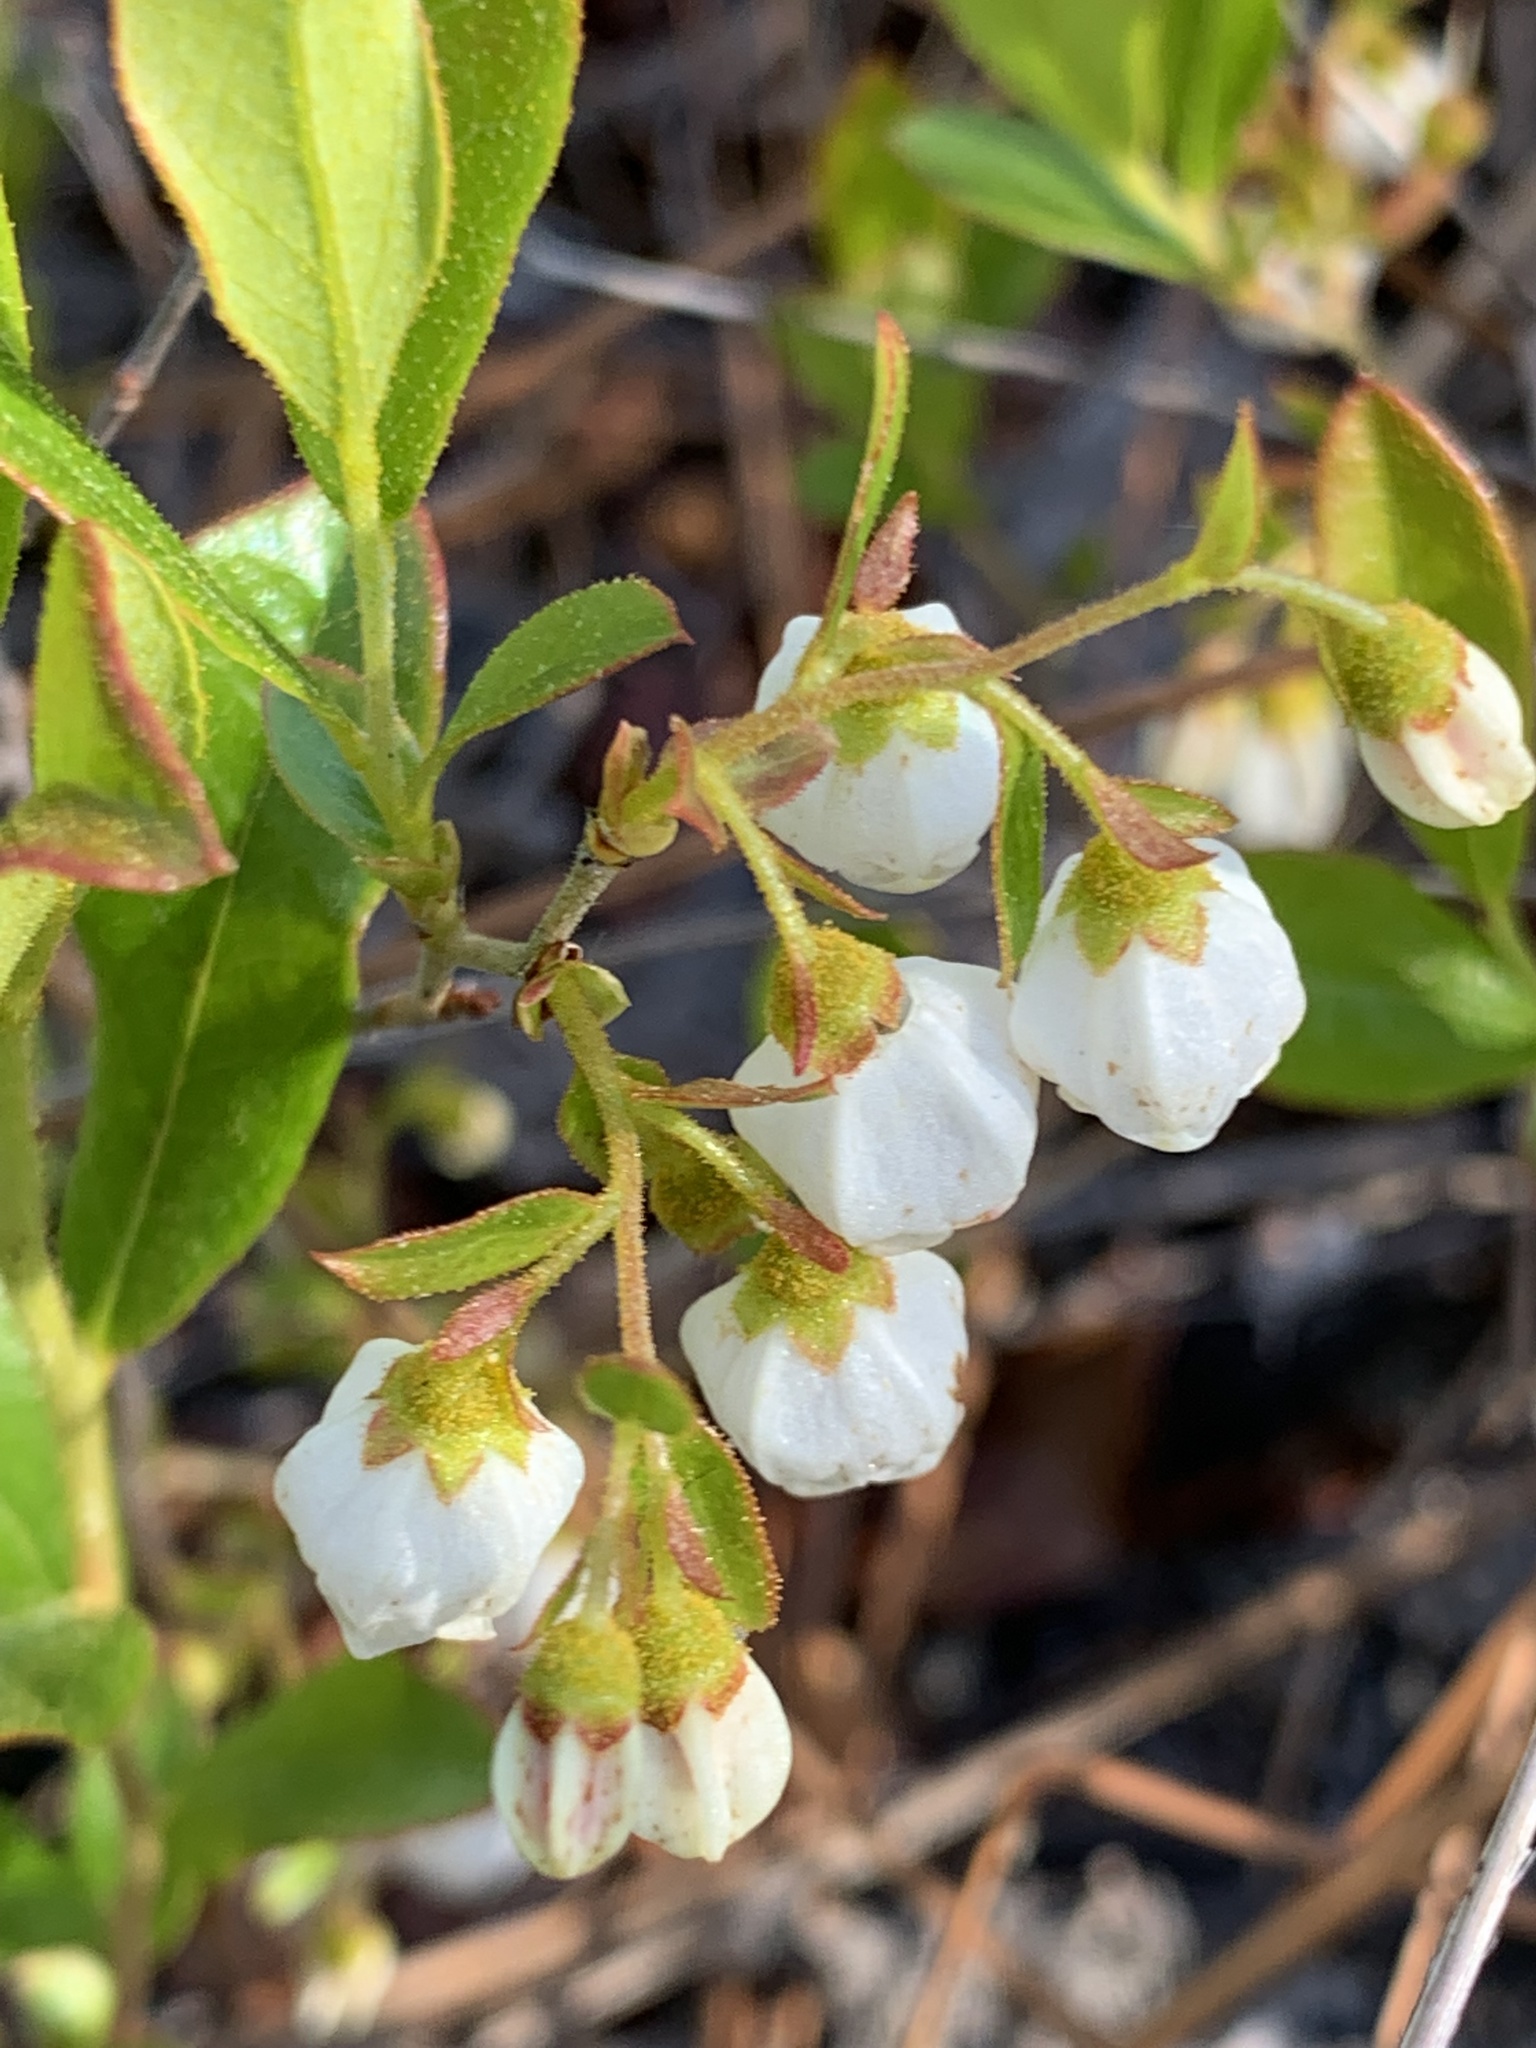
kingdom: Plantae
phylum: Tracheophyta
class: Magnoliopsida
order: Ericales
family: Ericaceae
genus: Gaylussacia
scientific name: Gaylussacia dumosa
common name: Dwarf huckleberry
